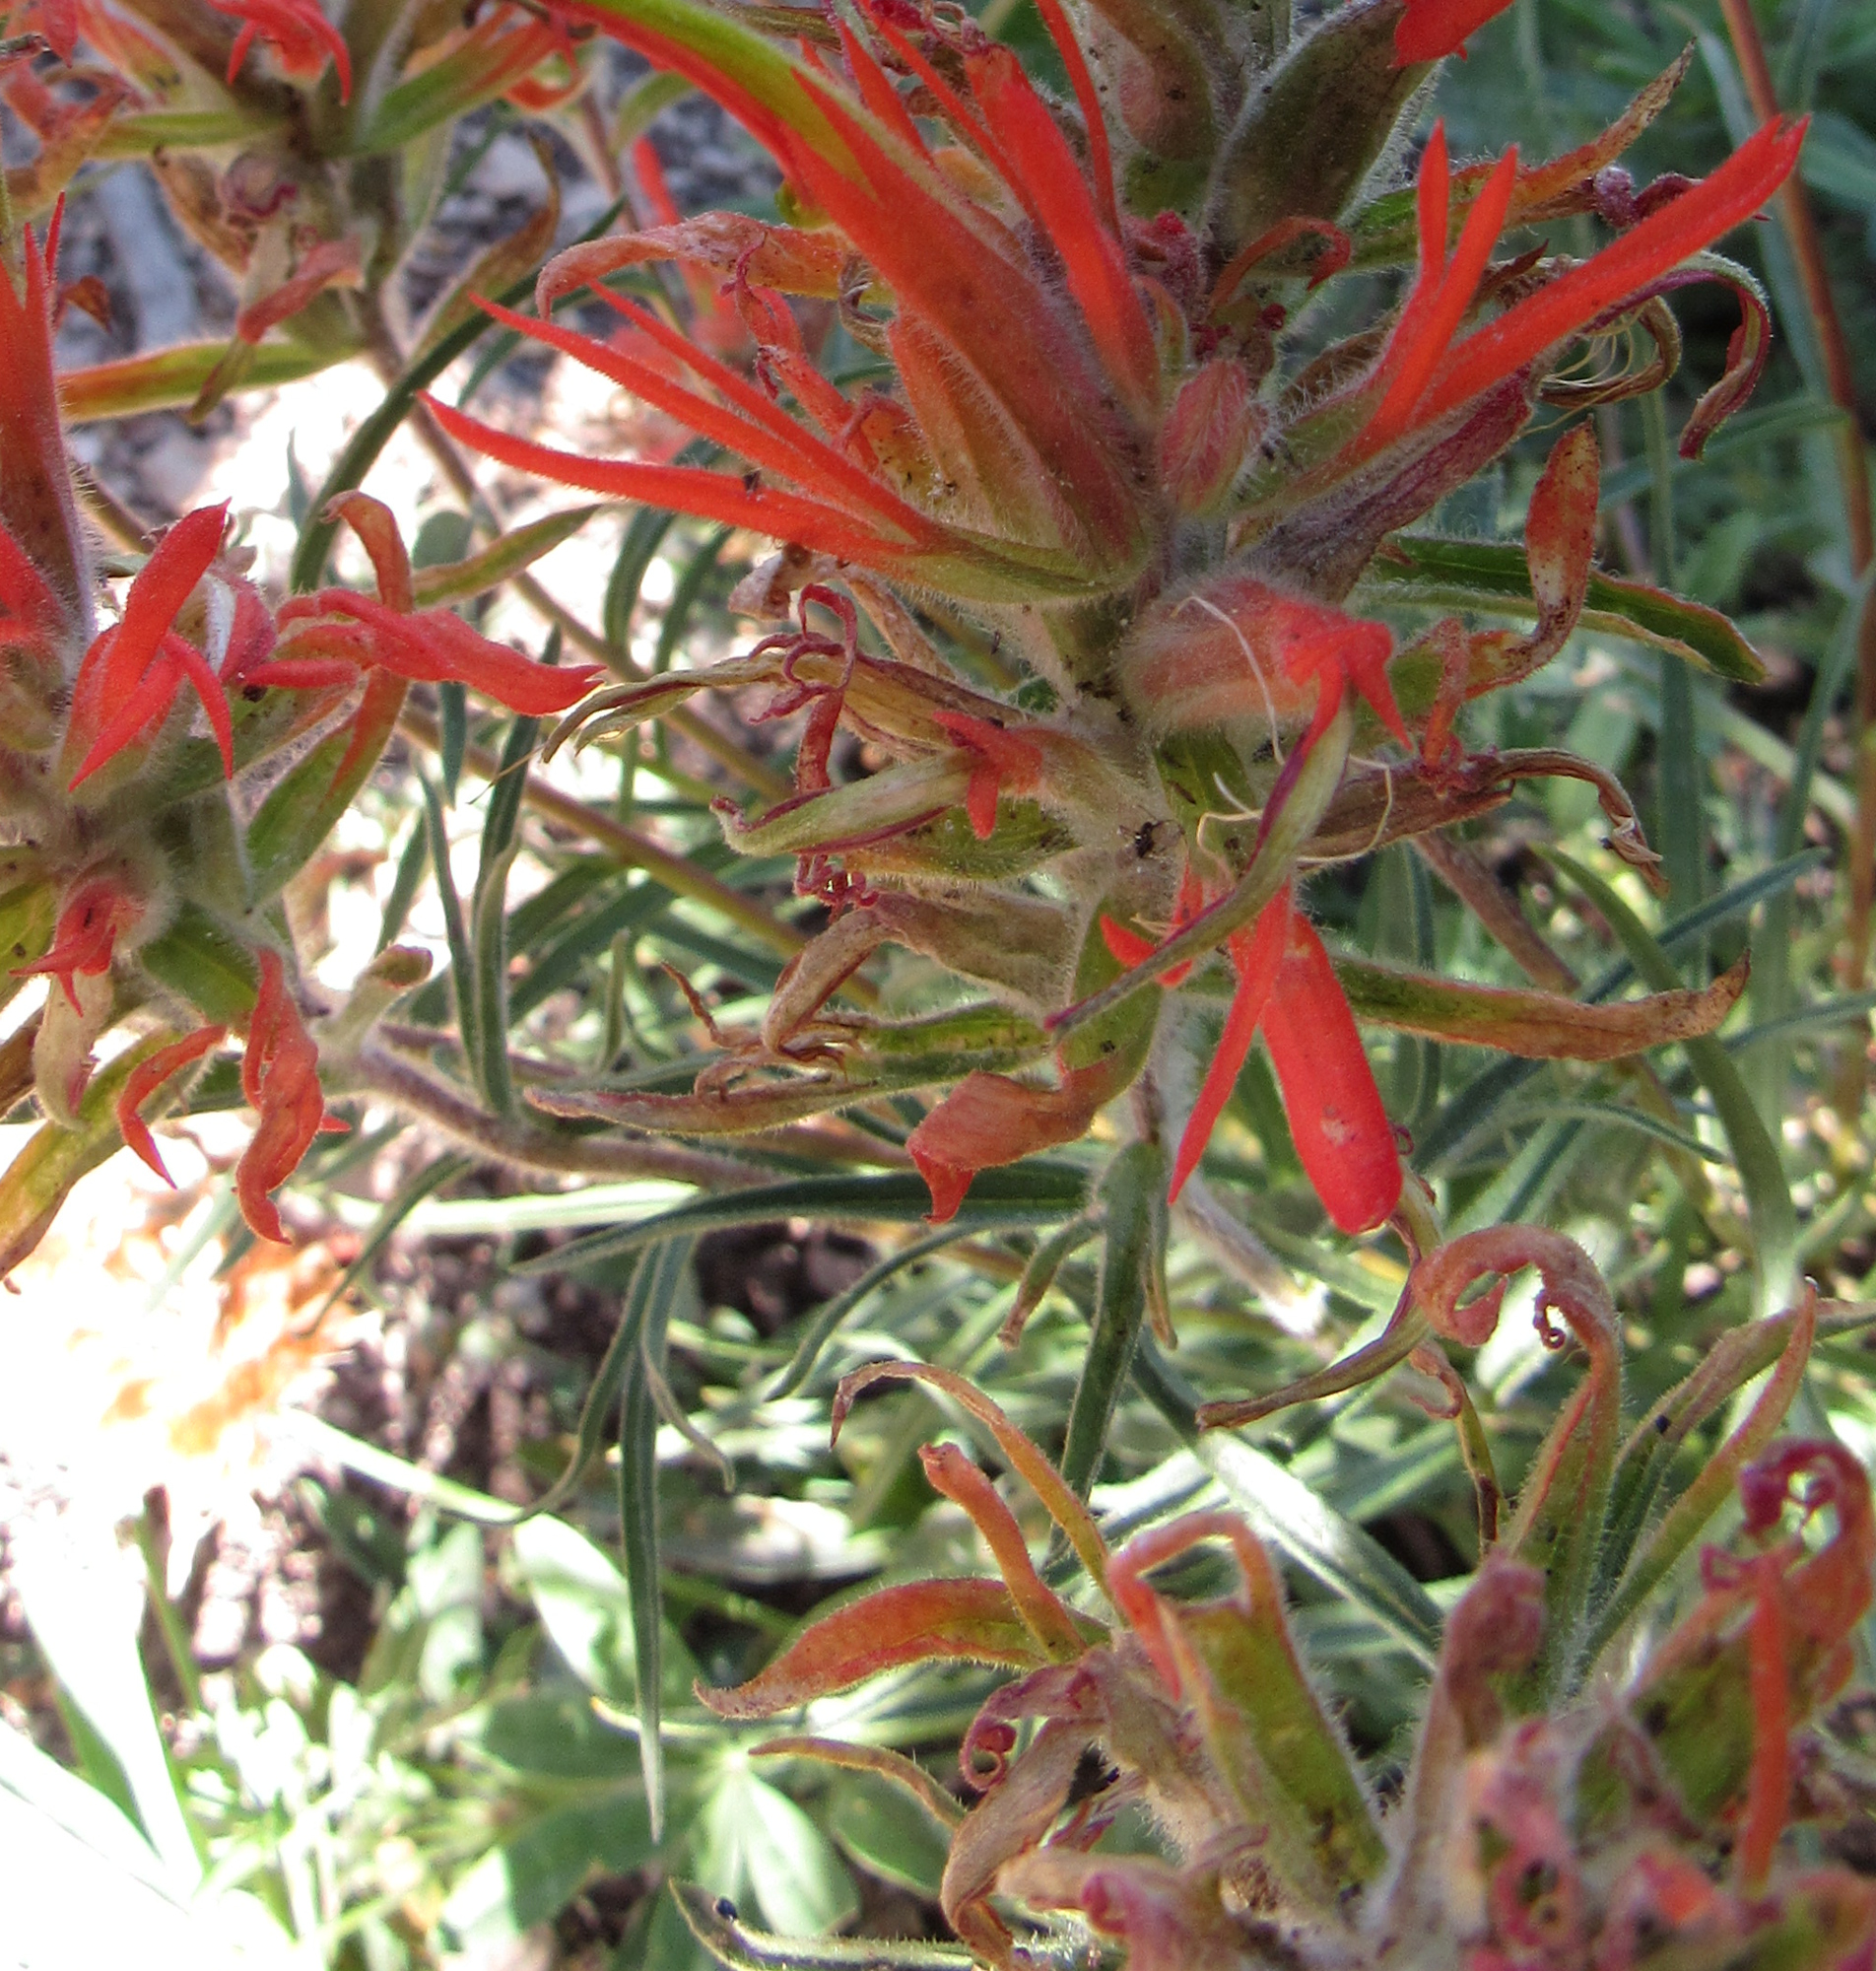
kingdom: Plantae
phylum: Tracheophyta
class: Magnoliopsida
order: Lamiales
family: Orobanchaceae
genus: Castilleja
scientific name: Castilleja covilleana
